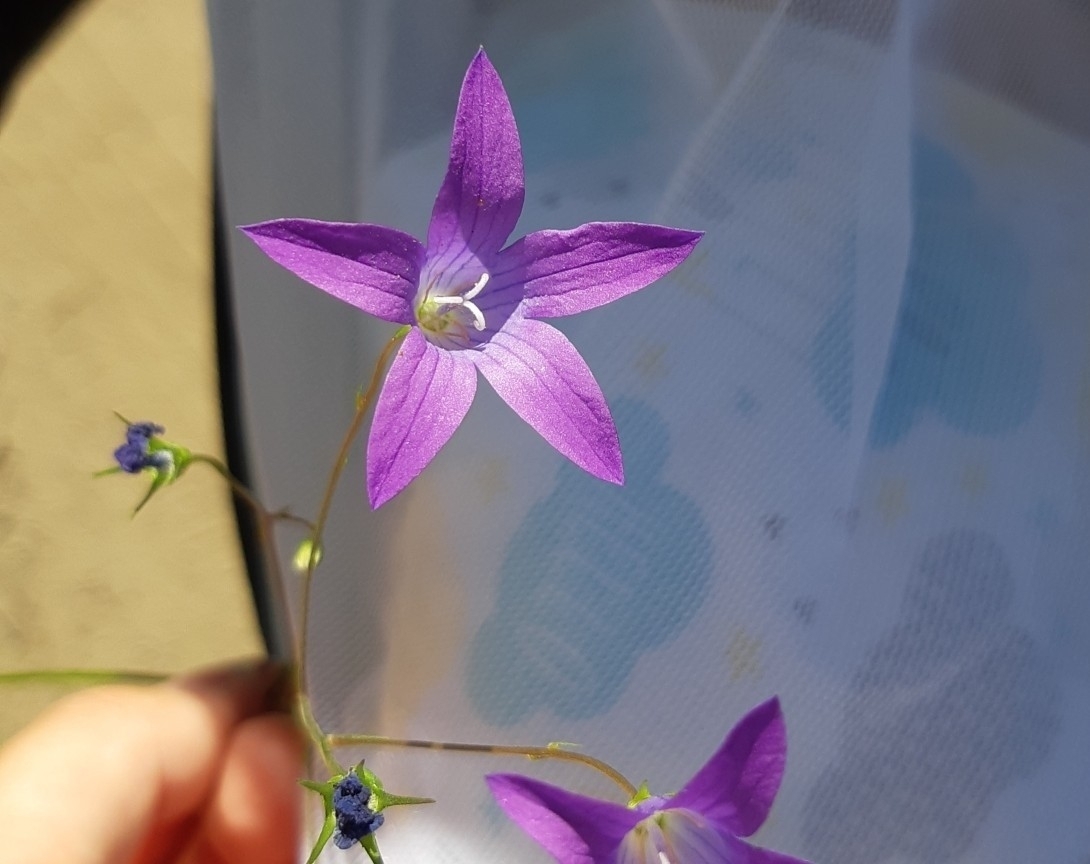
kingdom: Plantae
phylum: Tracheophyta
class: Magnoliopsida
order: Asterales
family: Campanulaceae
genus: Campanula
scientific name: Campanula patula
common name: Spreading bellflower
